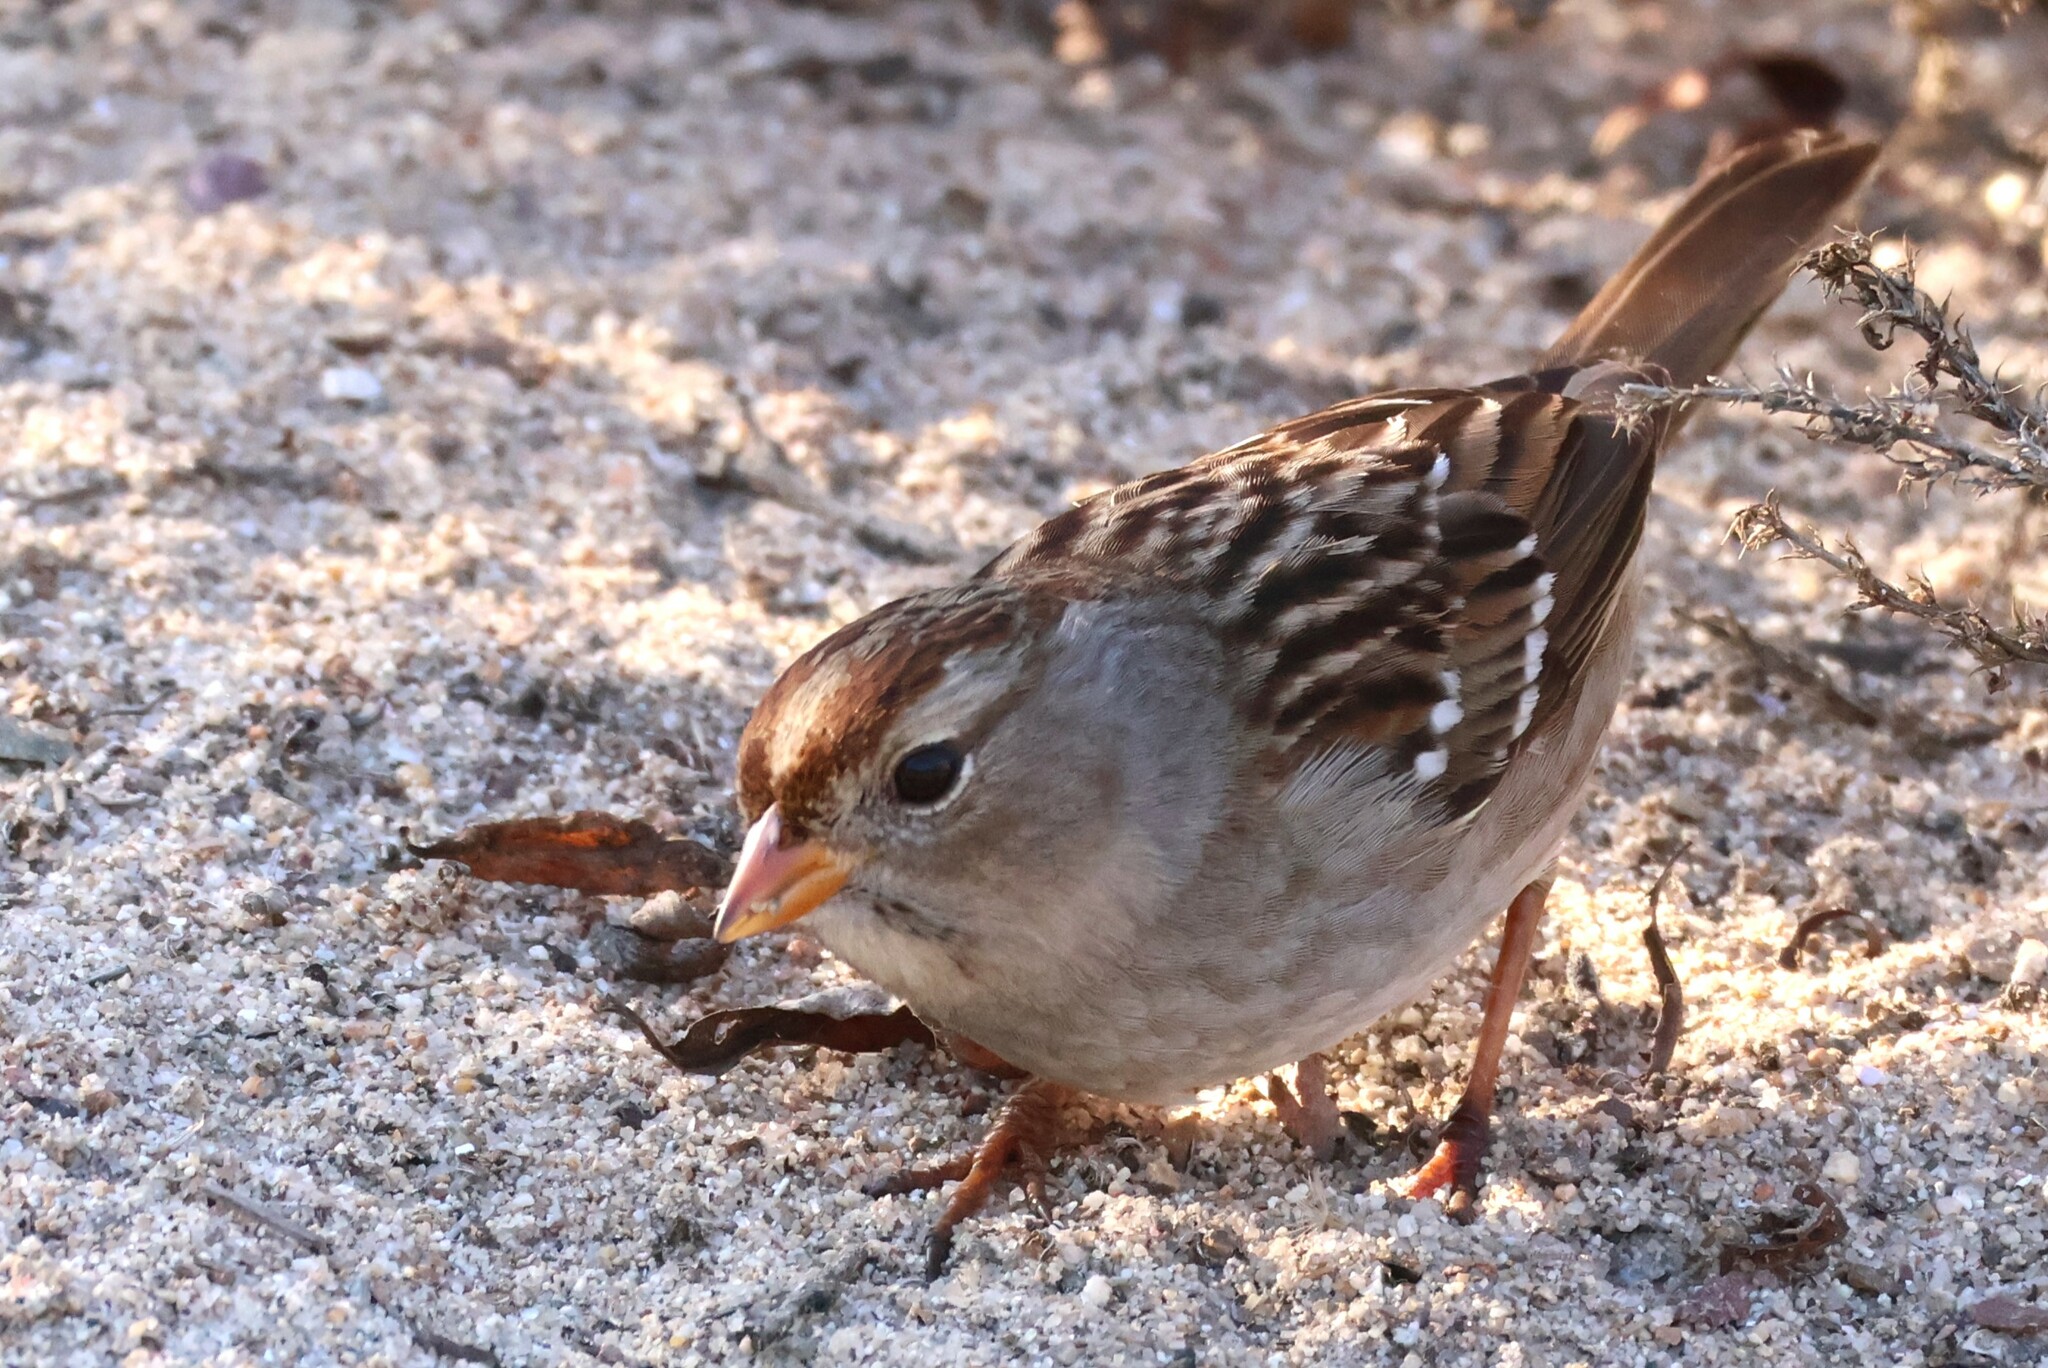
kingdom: Animalia
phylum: Chordata
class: Aves
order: Passeriformes
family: Passerellidae
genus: Zonotrichia
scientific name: Zonotrichia leucophrys
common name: White-crowned sparrow
